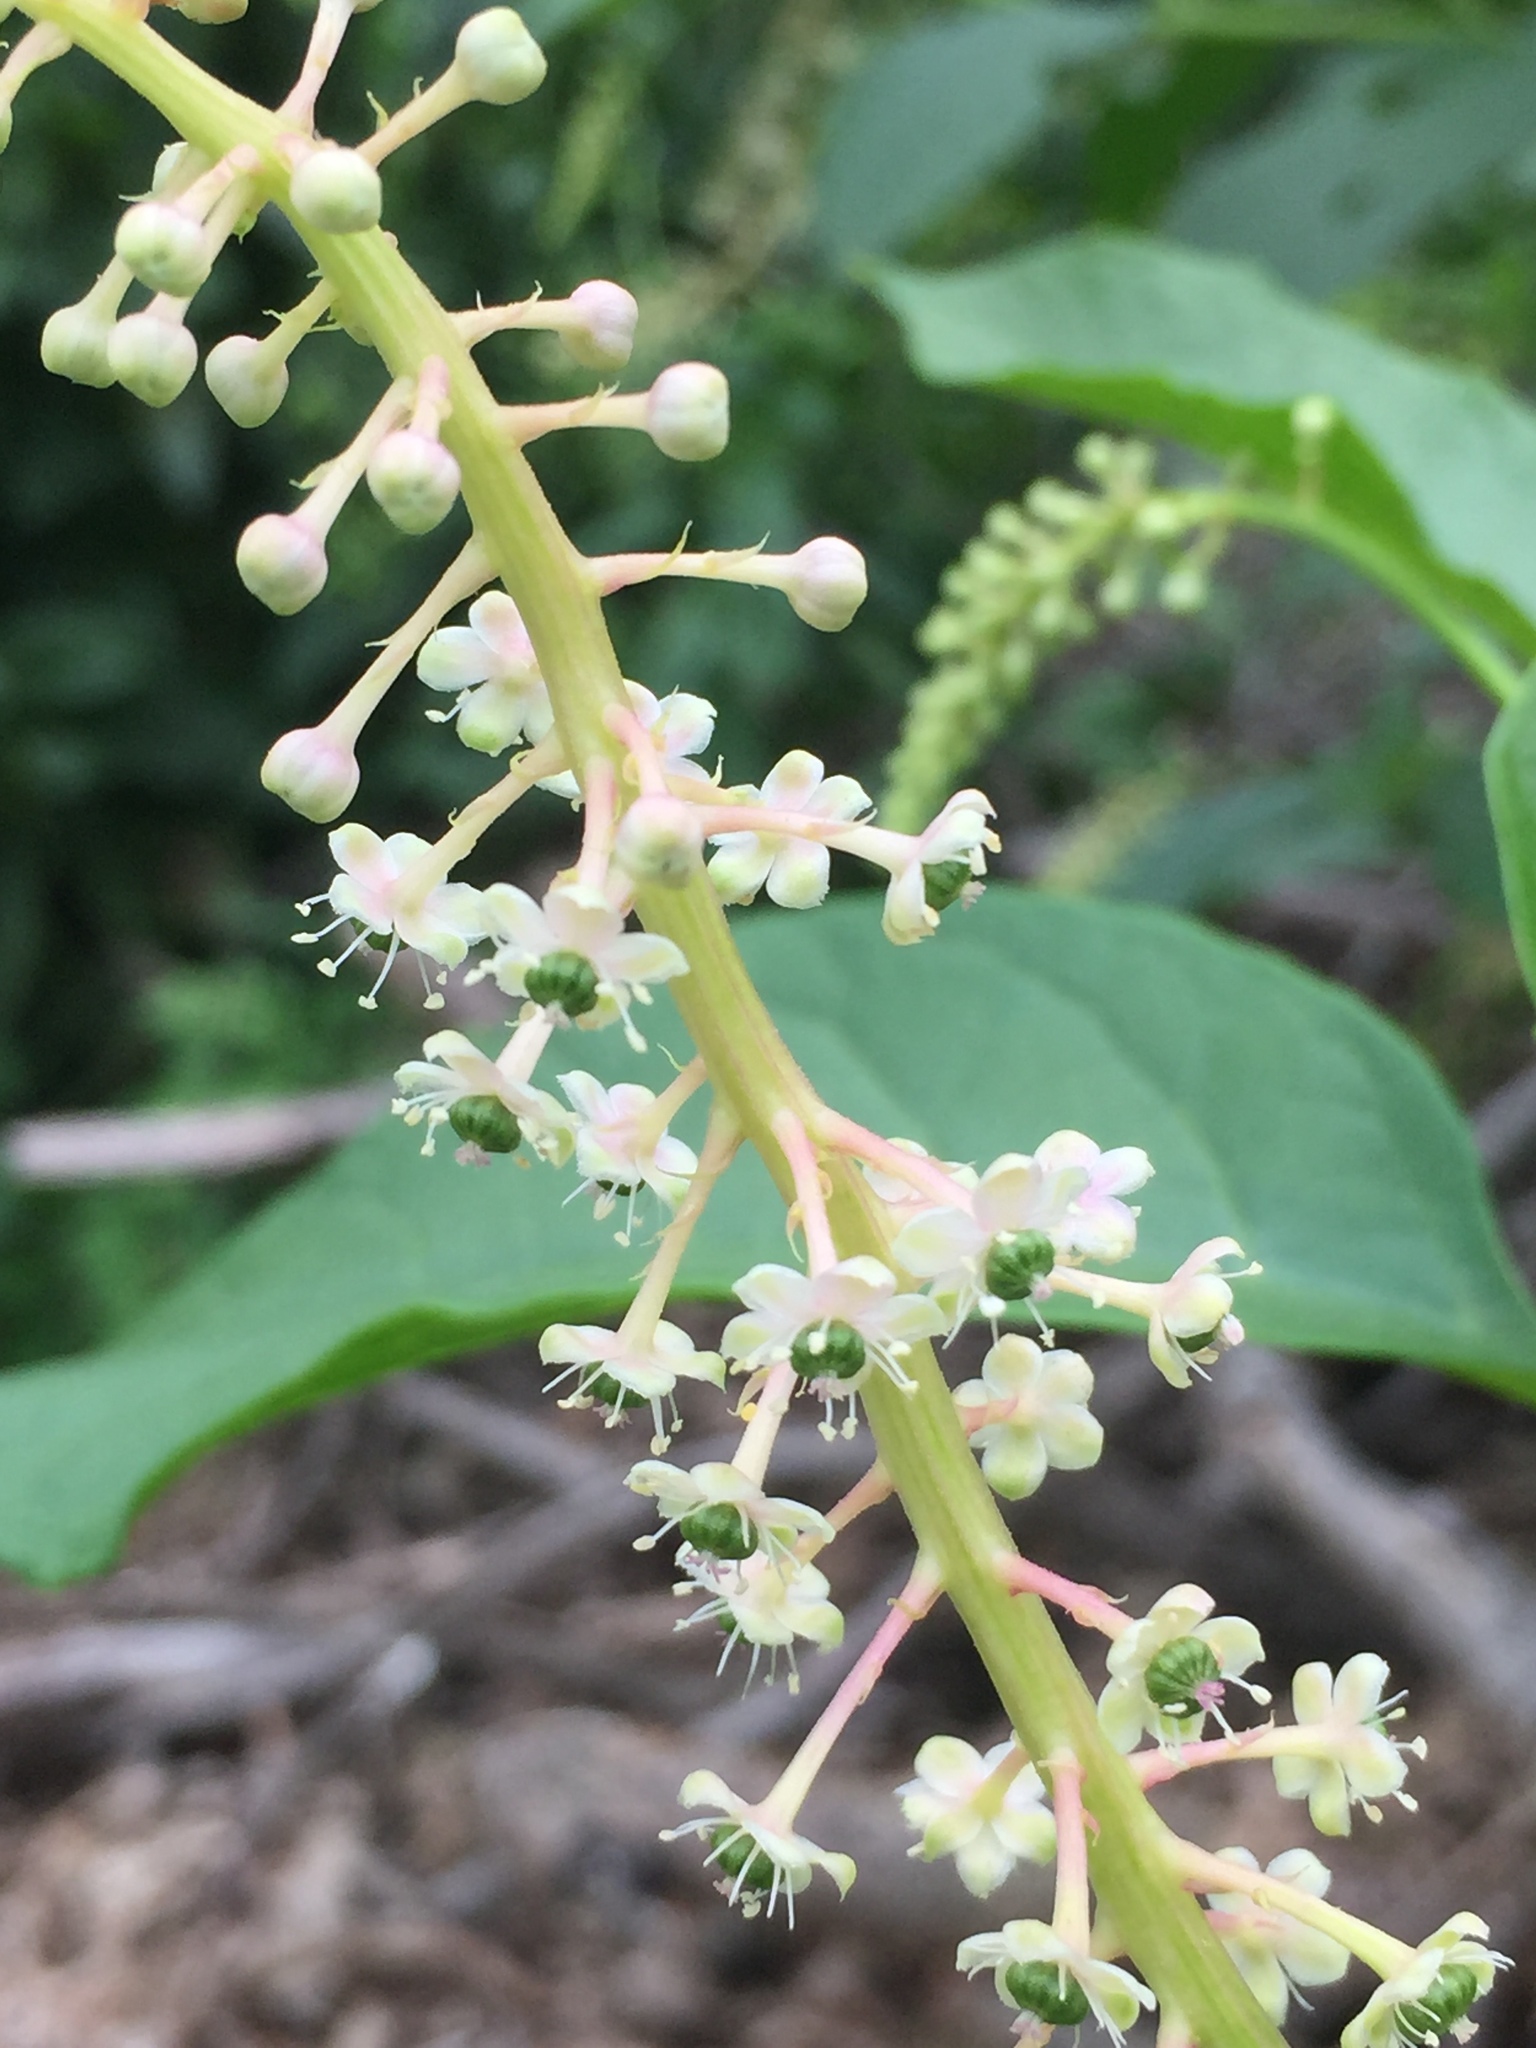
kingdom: Plantae
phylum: Tracheophyta
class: Magnoliopsida
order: Caryophyllales
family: Phytolaccaceae
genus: Phytolacca
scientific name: Phytolacca americana
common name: American pokeweed
